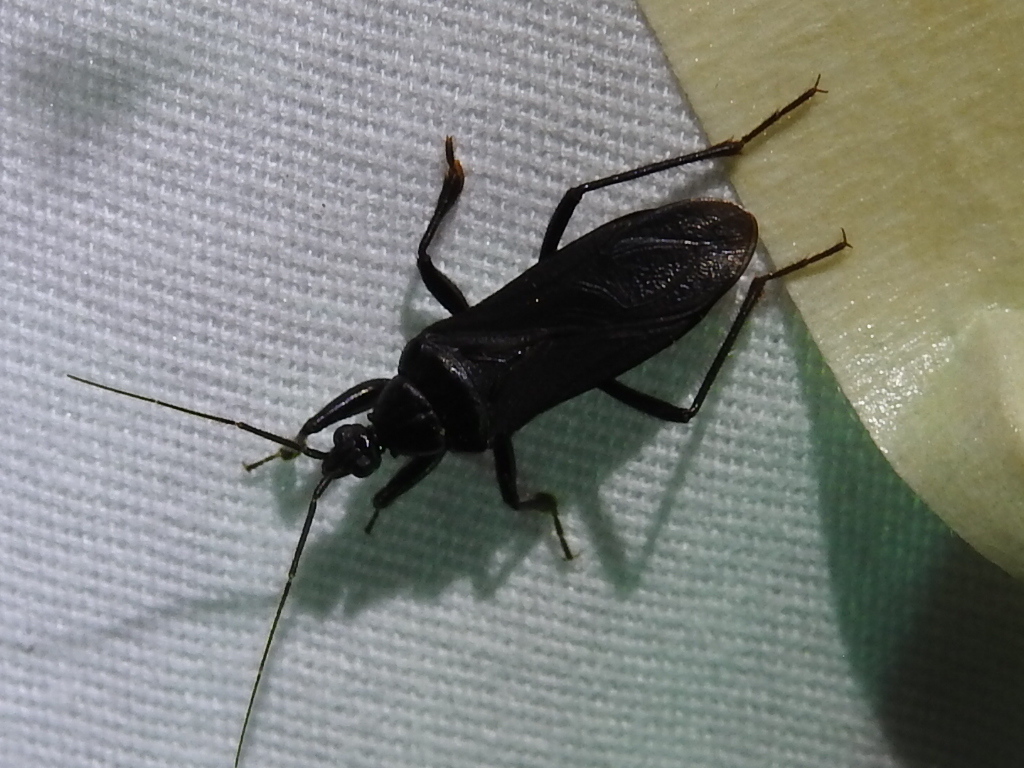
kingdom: Animalia
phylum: Arthropoda
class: Insecta
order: Hemiptera
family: Reduviidae
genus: Melanolestes
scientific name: Melanolestes picipes
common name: Assassin bug
